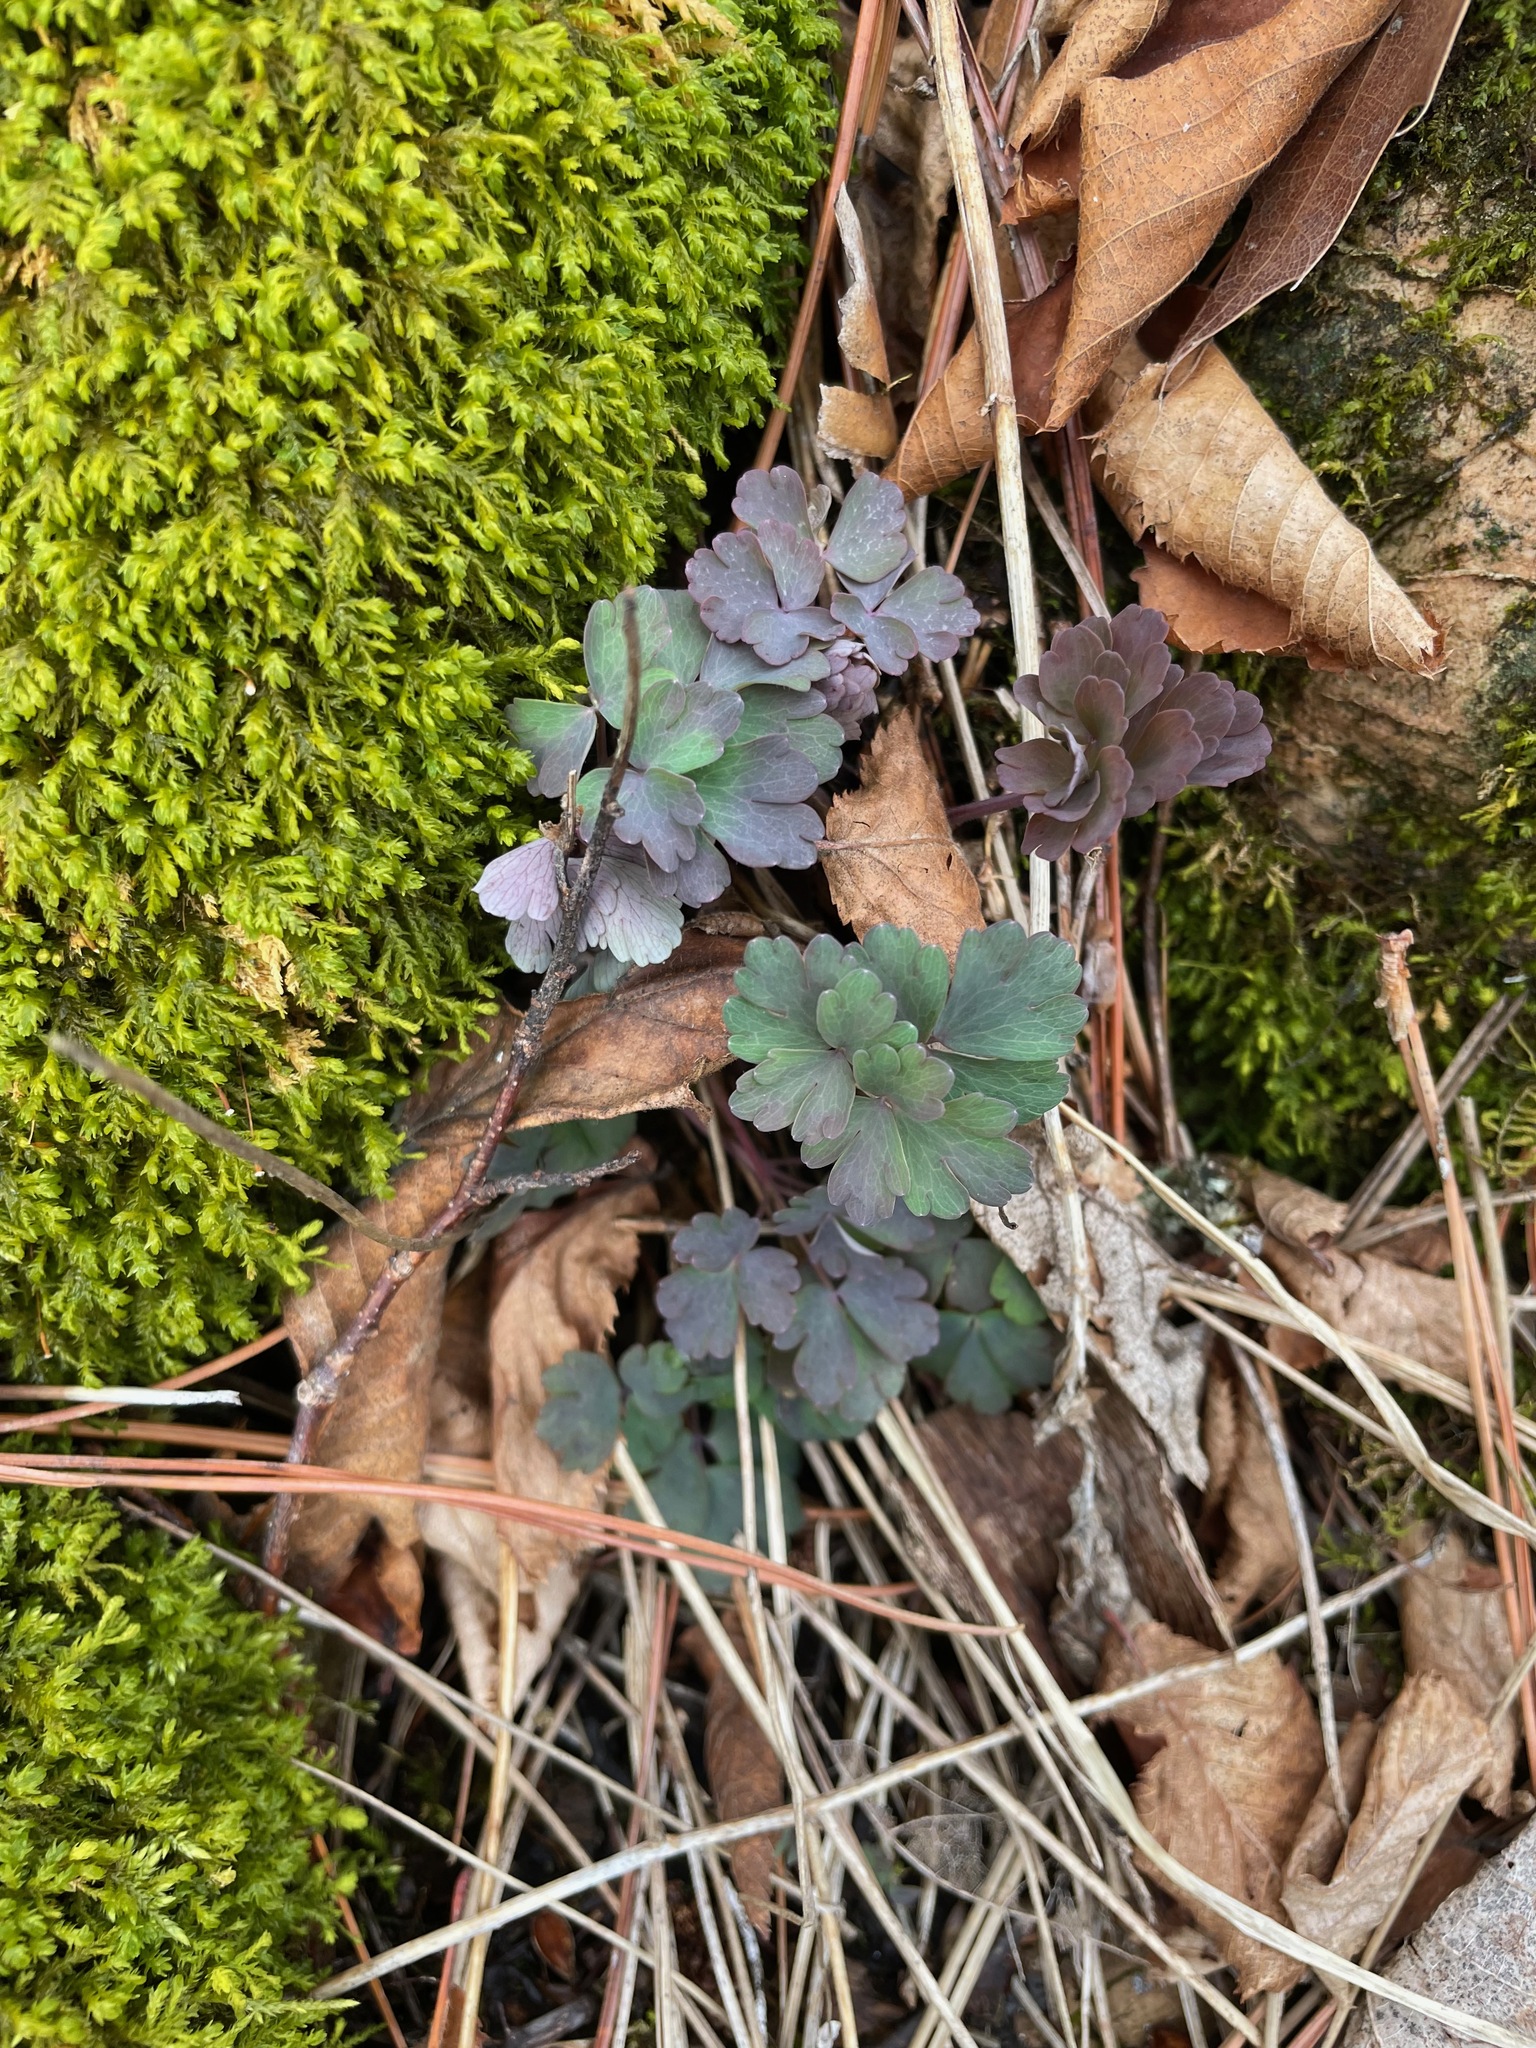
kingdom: Plantae
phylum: Tracheophyta
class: Magnoliopsida
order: Ranunculales
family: Ranunculaceae
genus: Aquilegia
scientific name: Aquilegia canadensis
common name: American columbine
